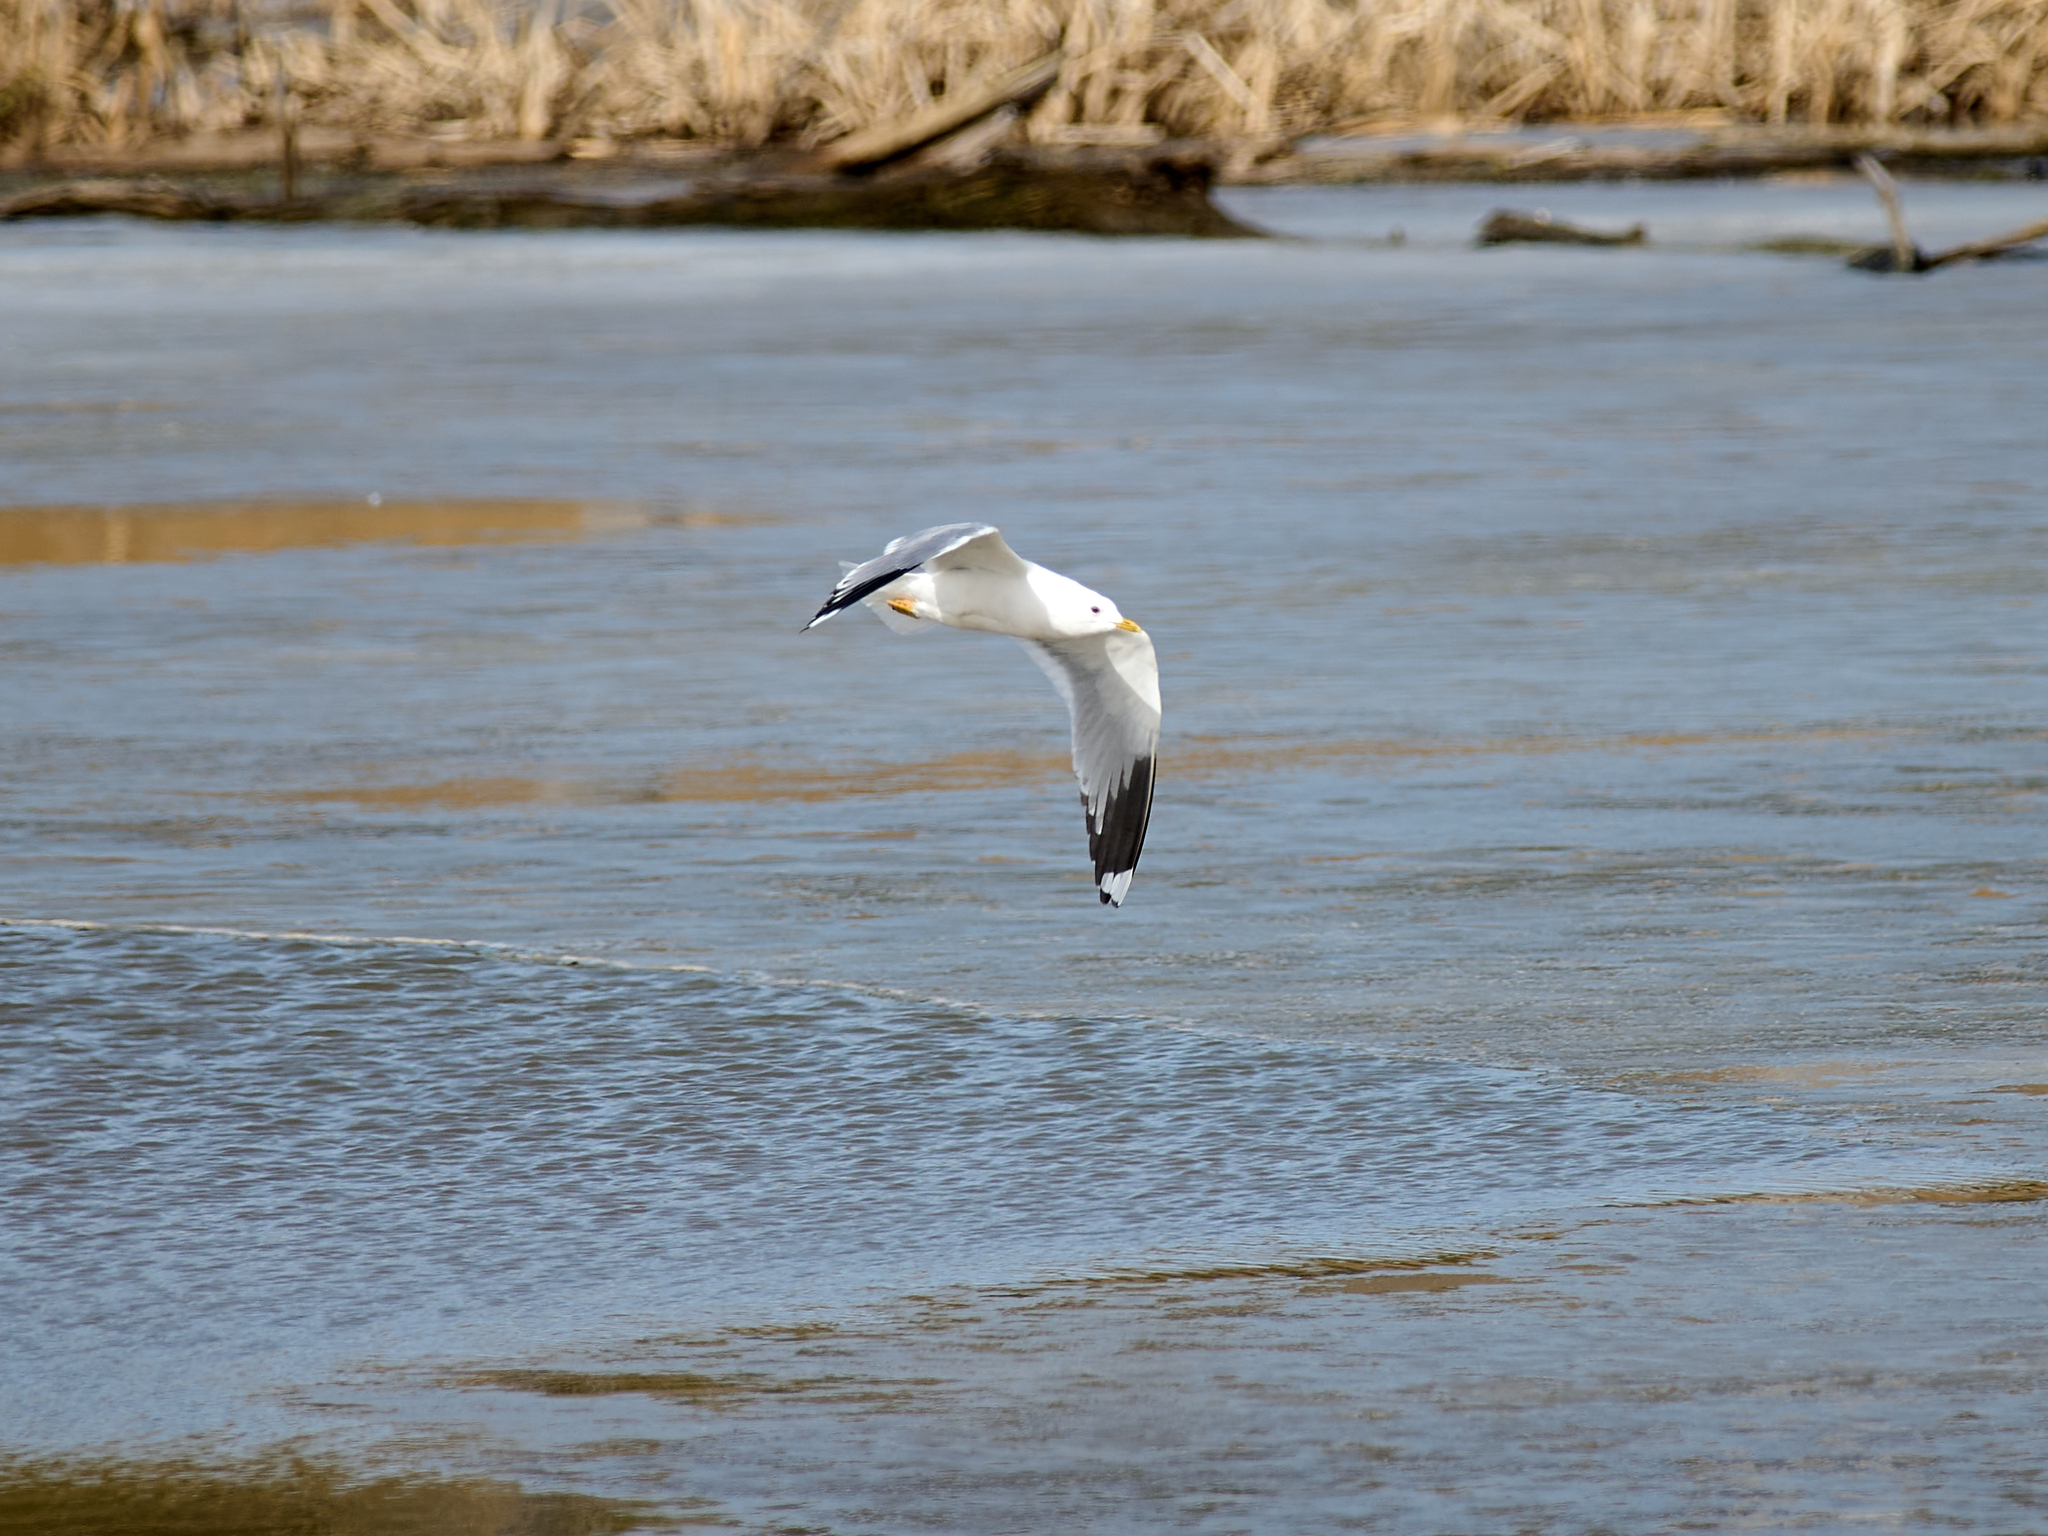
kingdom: Animalia
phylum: Chordata
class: Aves
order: Charadriiformes
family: Laridae
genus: Larus
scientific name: Larus canus
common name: Mew gull
